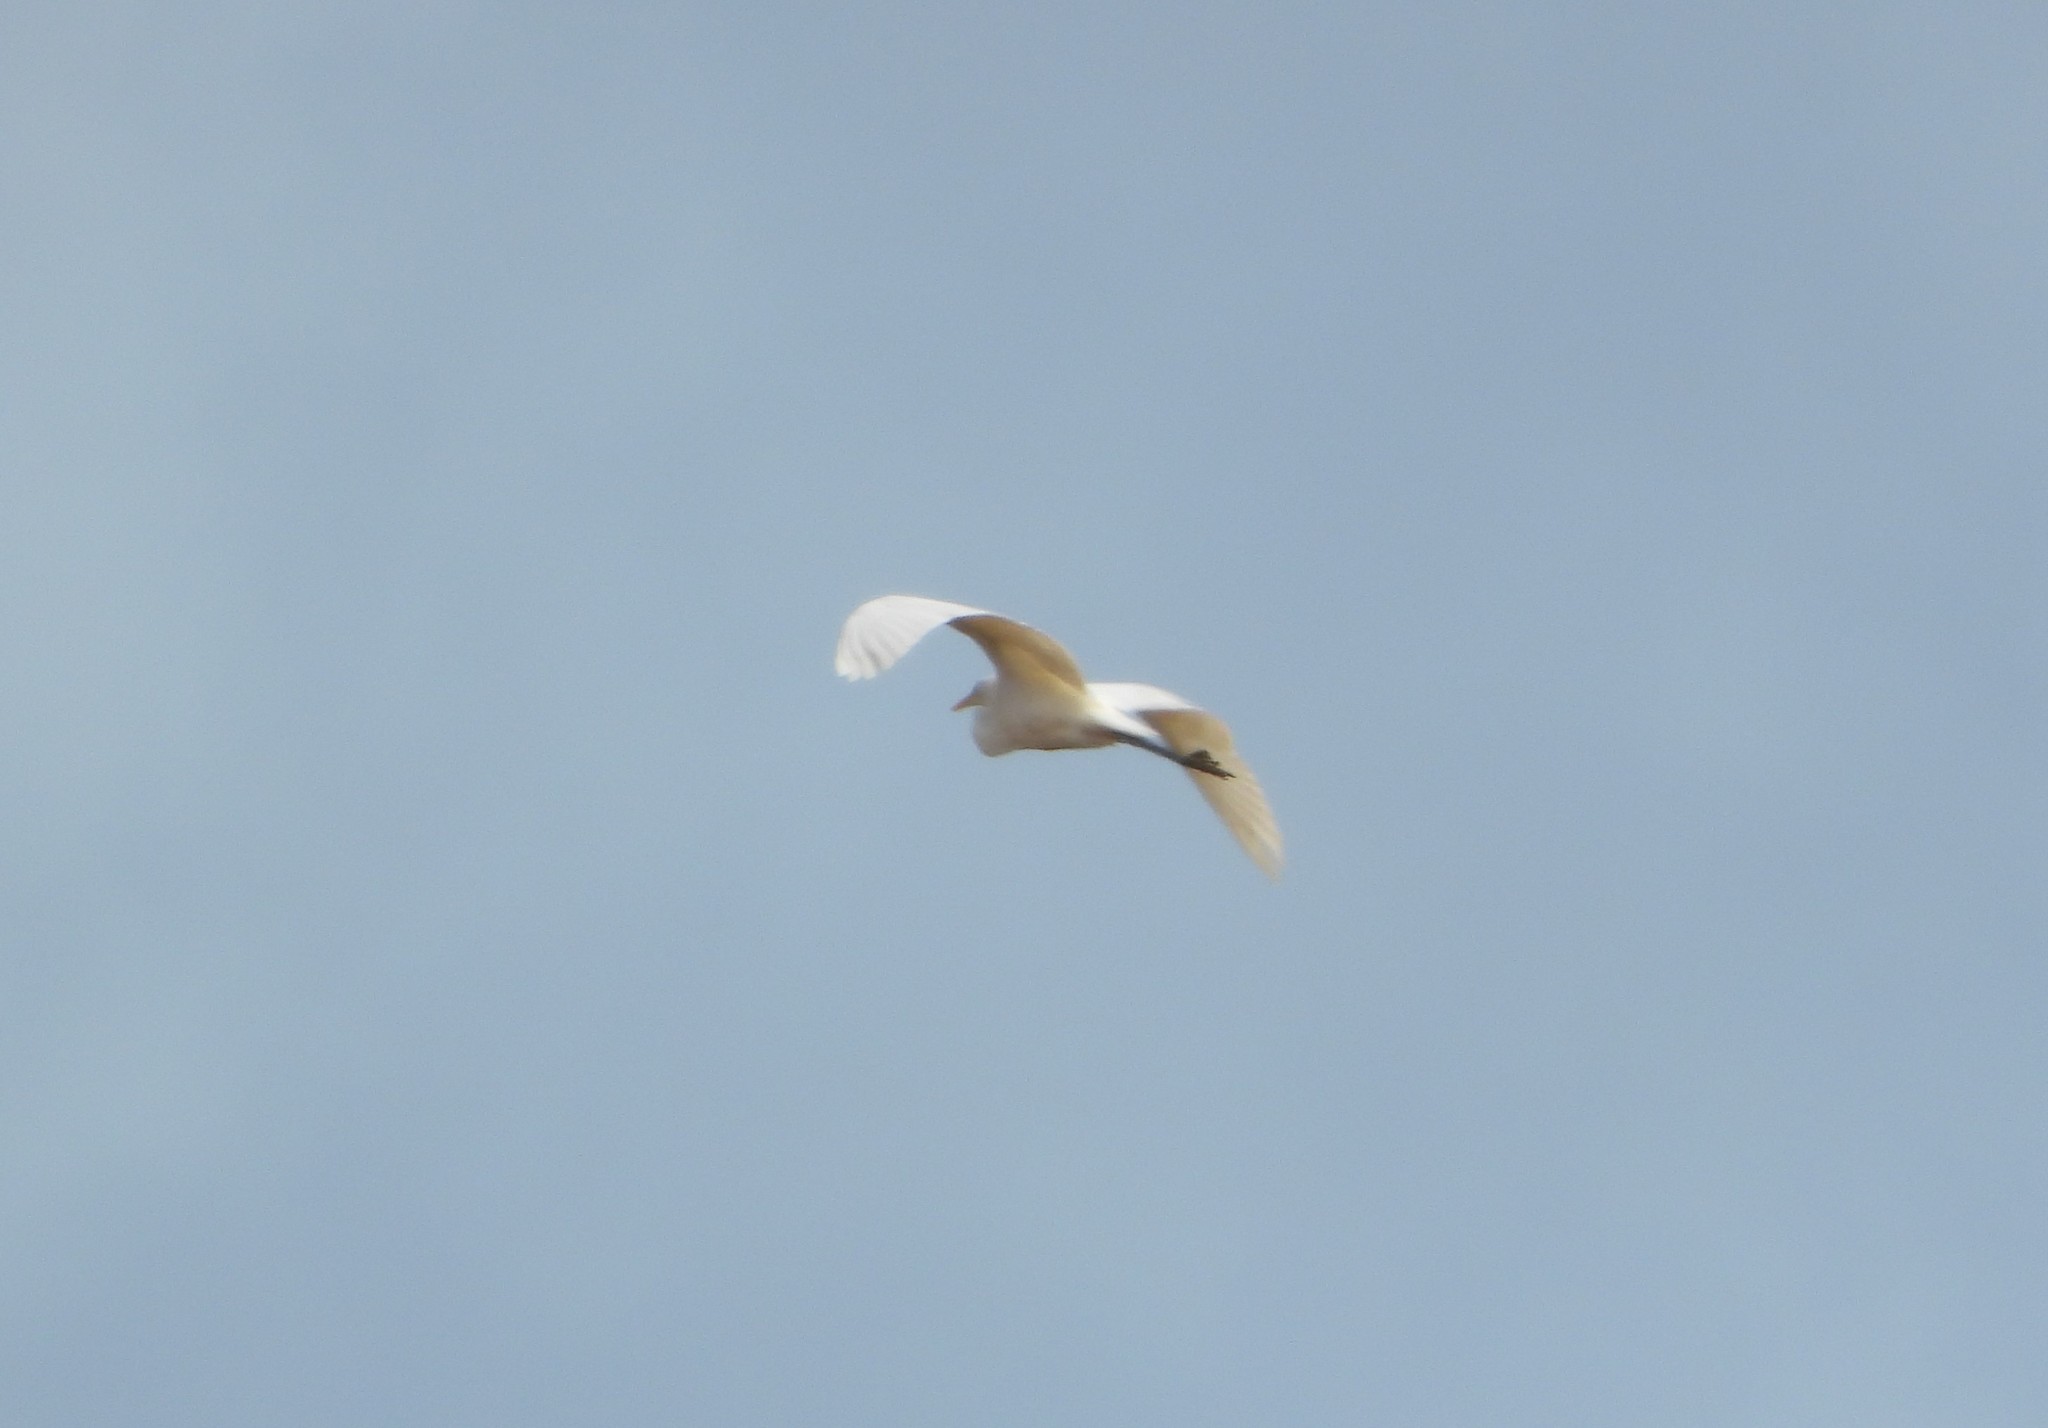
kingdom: Animalia
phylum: Chordata
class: Aves
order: Pelecaniformes
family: Ardeidae
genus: Ardea
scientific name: Ardea alba
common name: Great egret
